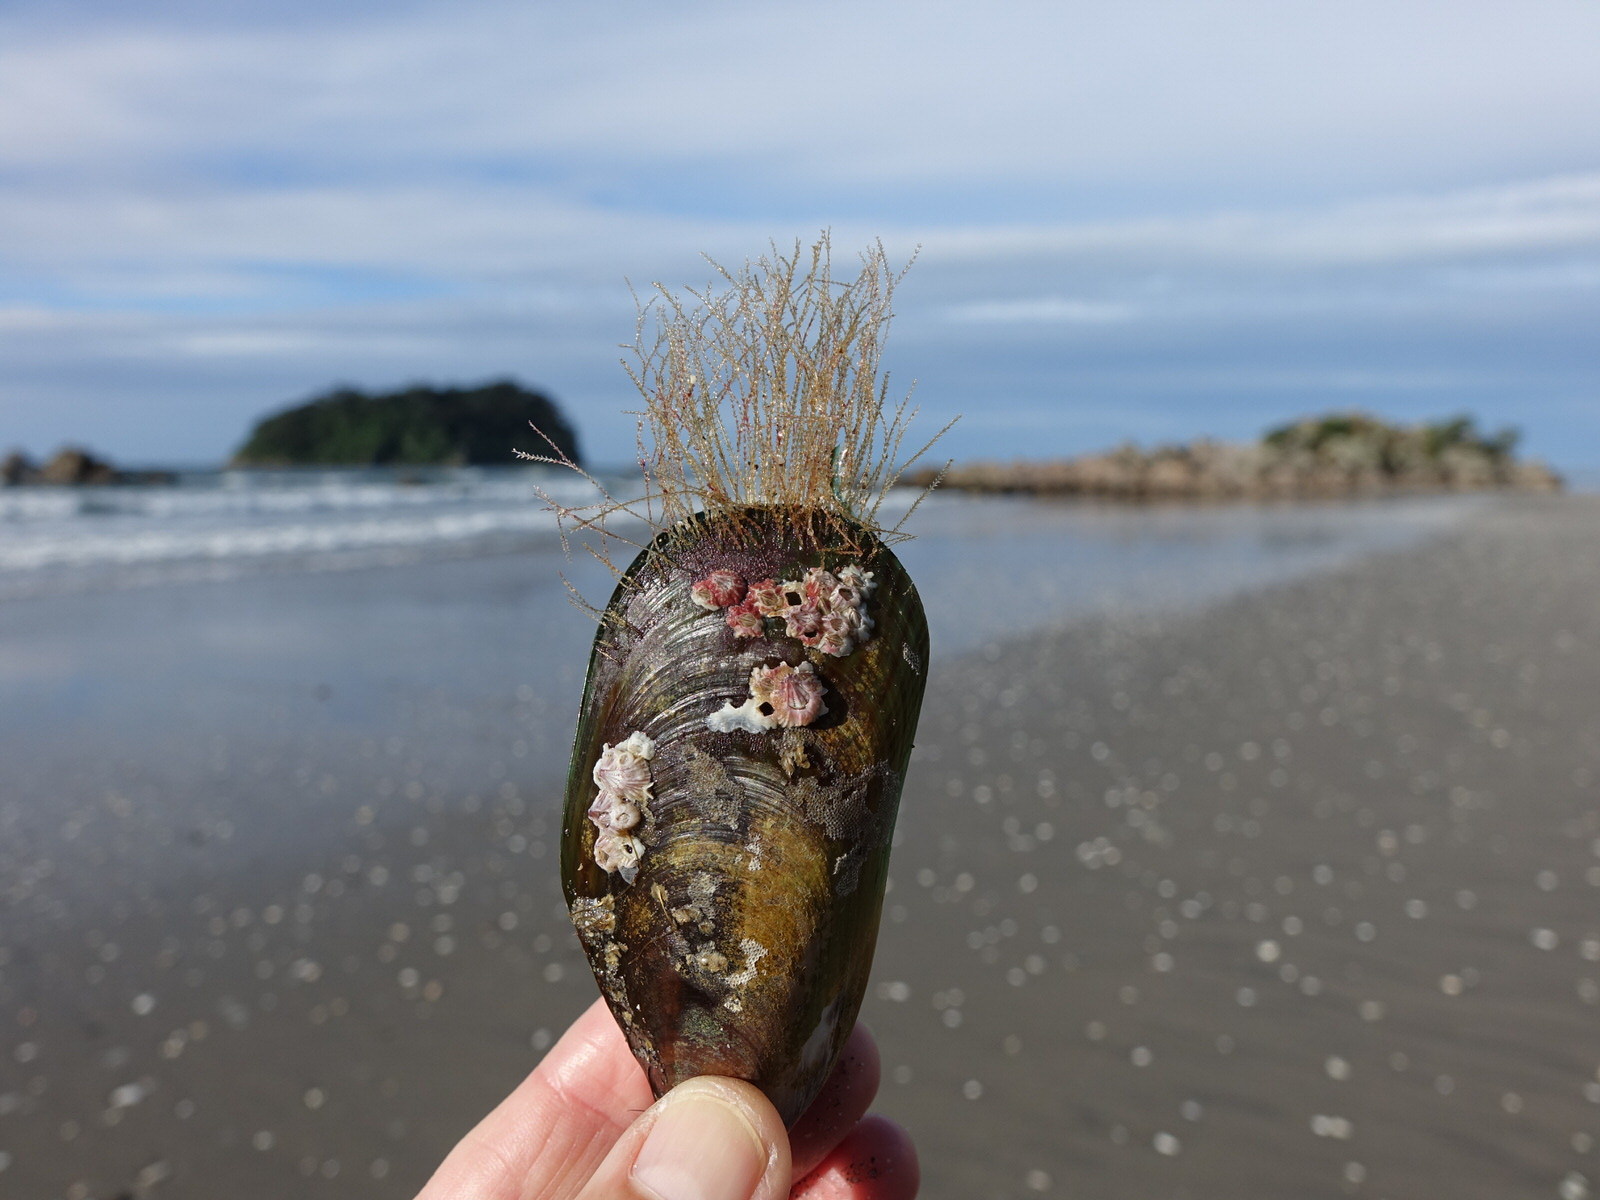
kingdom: Animalia
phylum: Cnidaria
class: Hydrozoa
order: Leptothecata
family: Sertulariidae
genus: Amphisbetia
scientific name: Amphisbetia bispinosa
